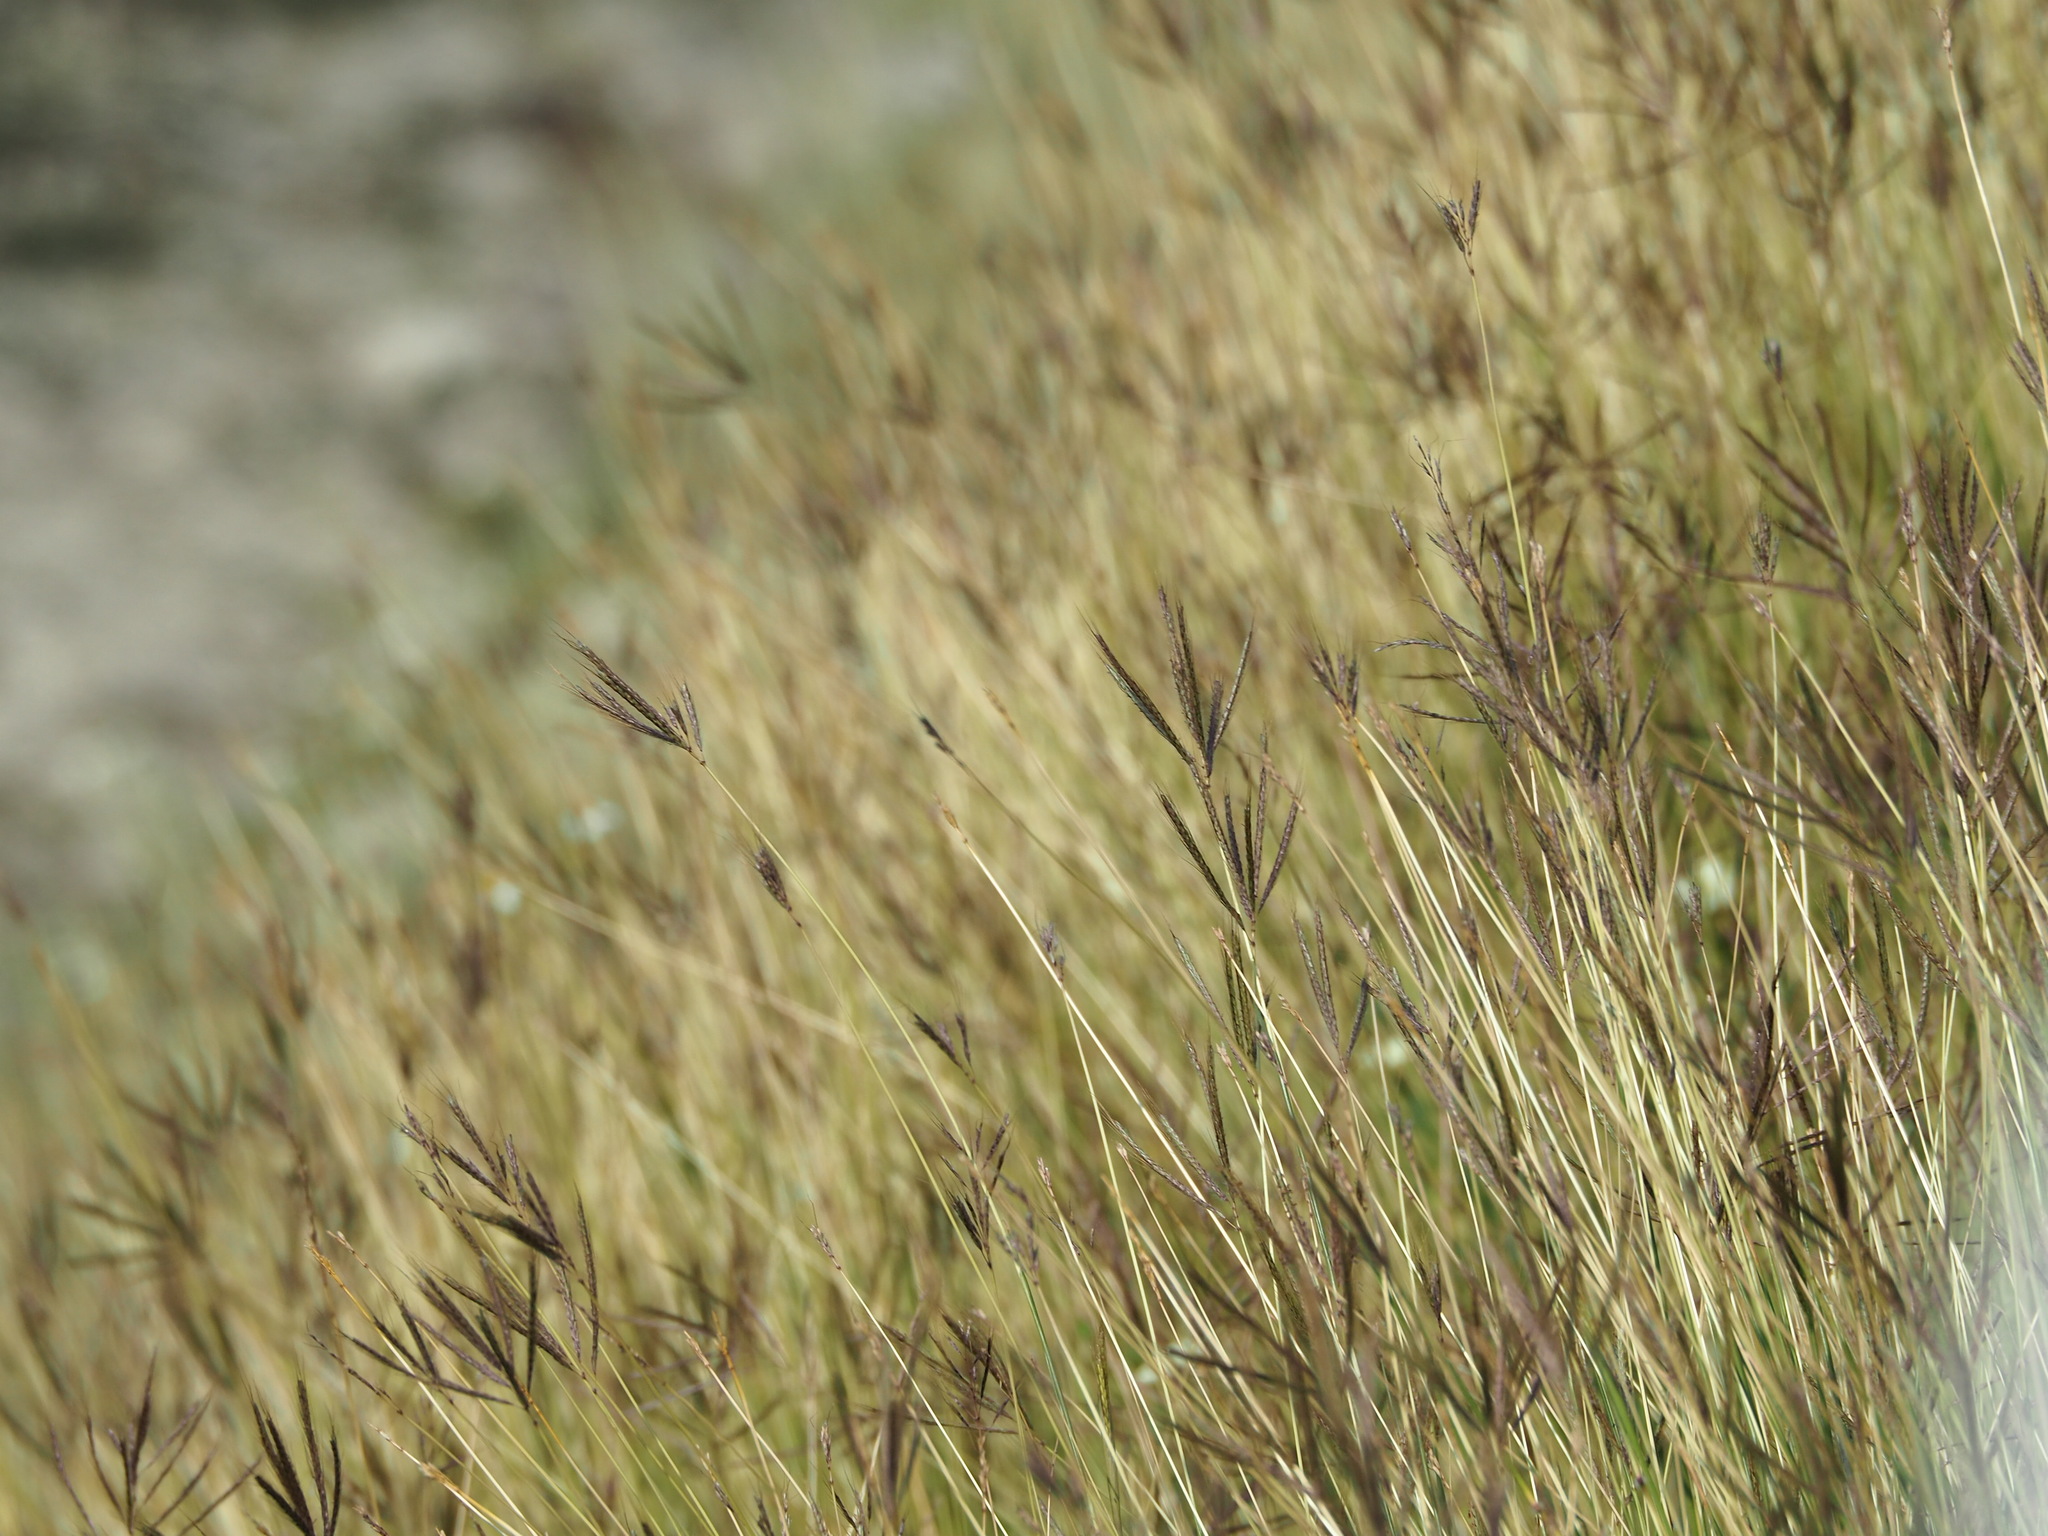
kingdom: Plantae
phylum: Tracheophyta
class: Liliopsida
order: Poales
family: Poaceae
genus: Dichanthium
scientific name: Dichanthium annulatum
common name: Kleberg's bluestem
